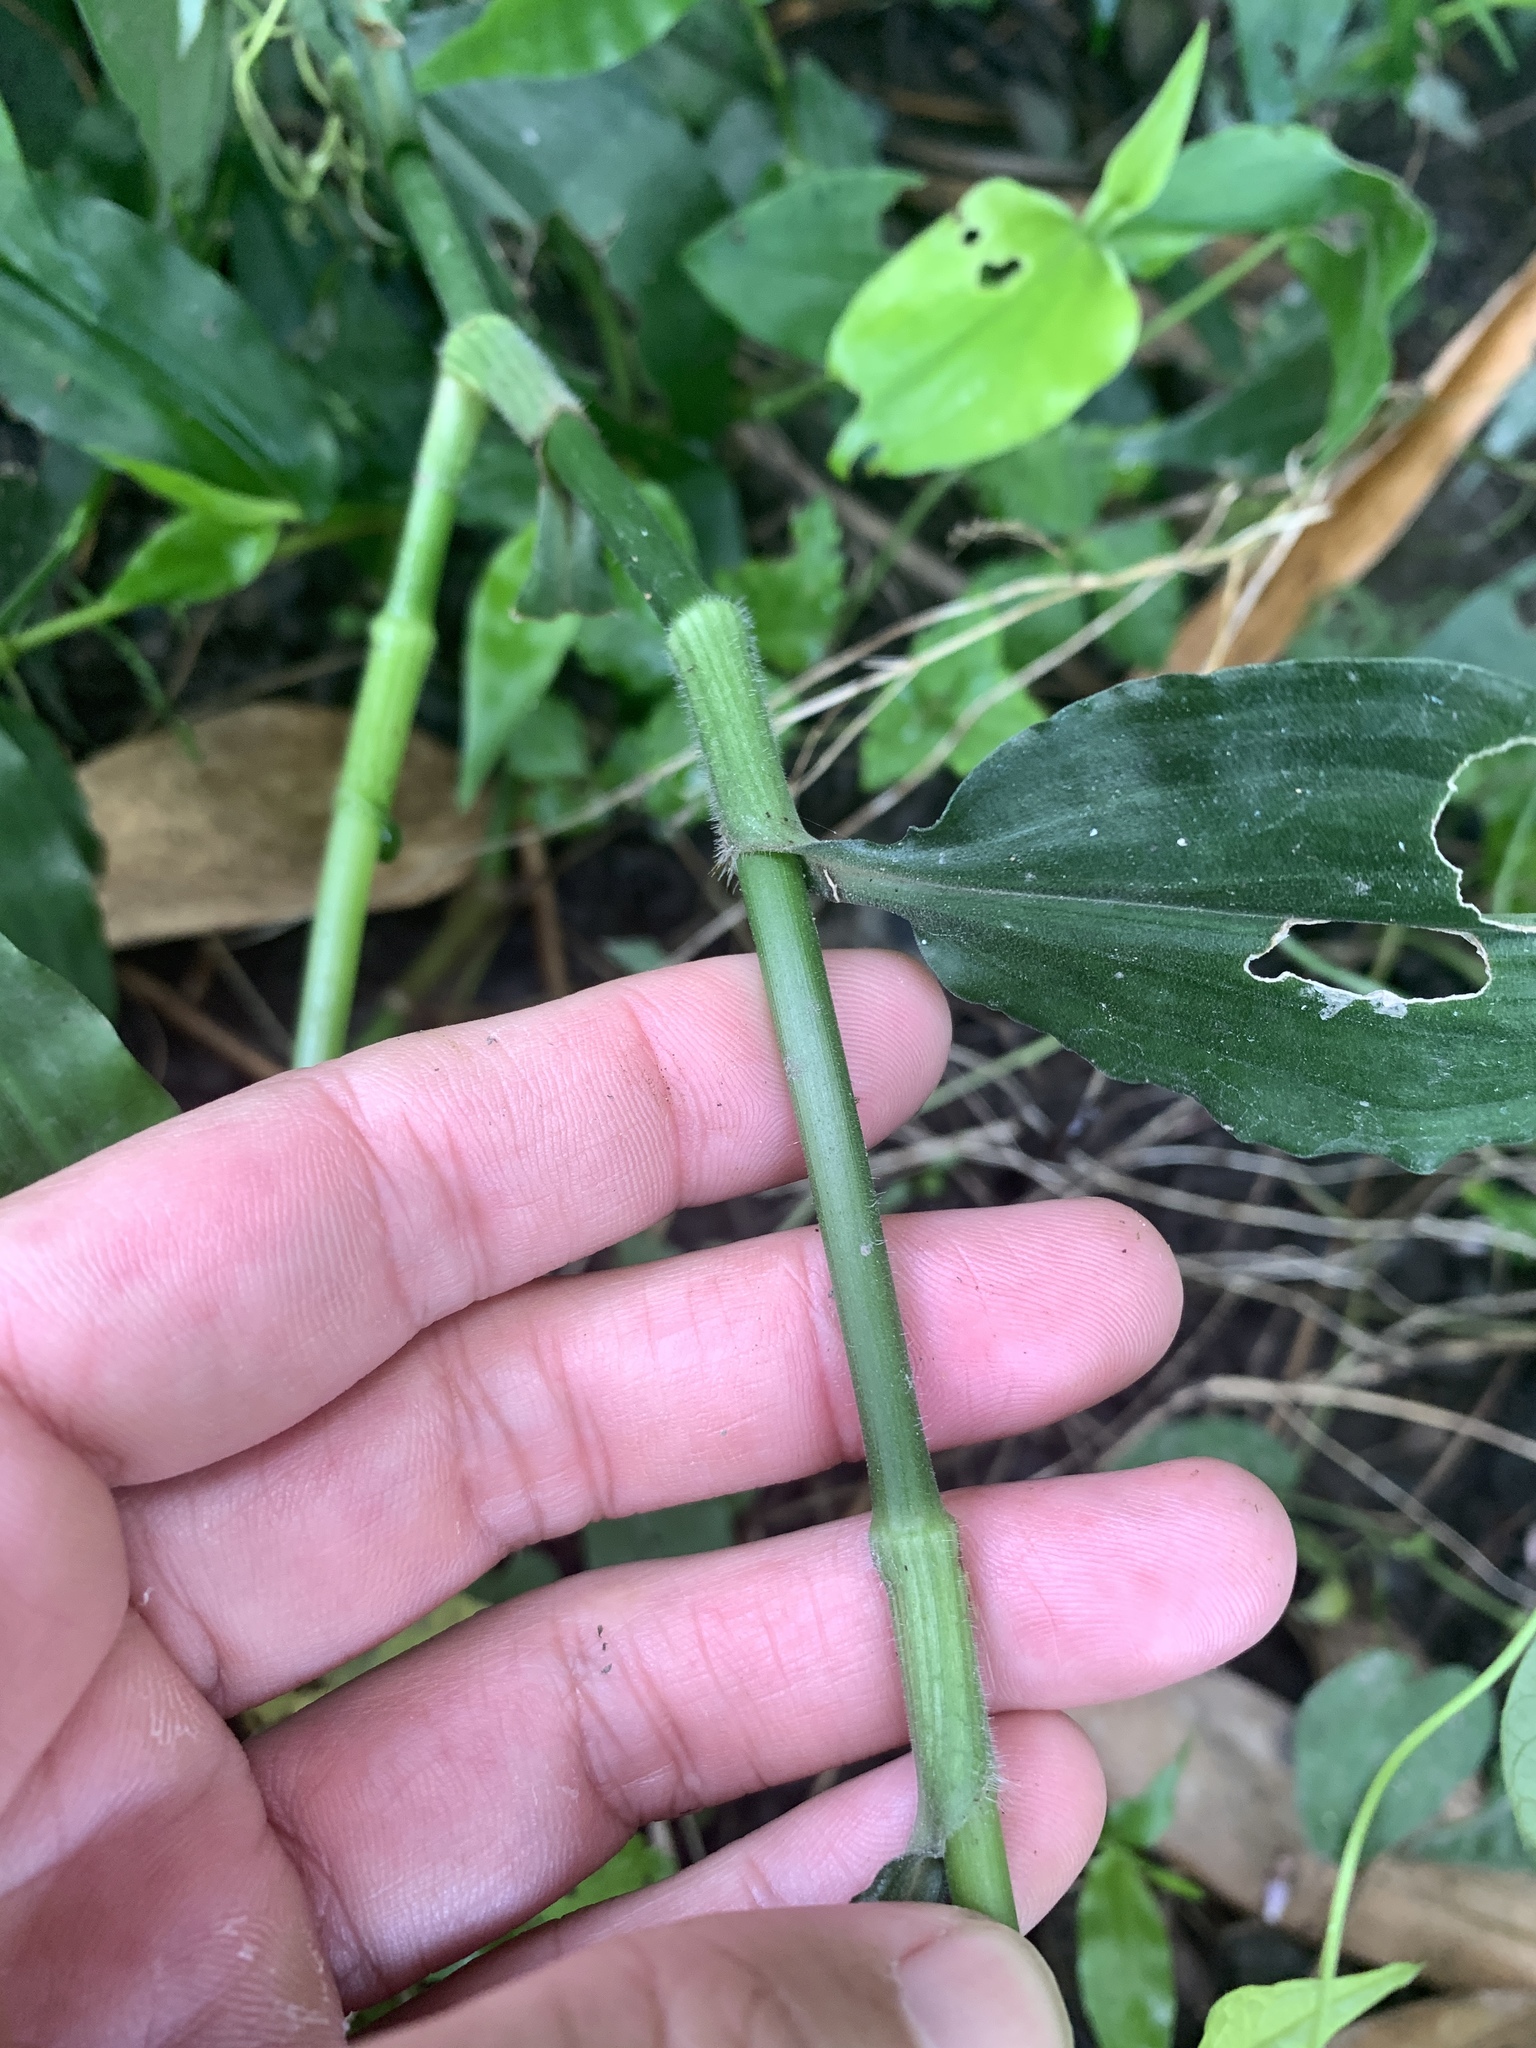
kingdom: Plantae
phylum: Tracheophyta
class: Liliopsida
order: Commelinales
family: Commelinaceae
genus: Rhopalephora
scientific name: Rhopalephora scaberrima
